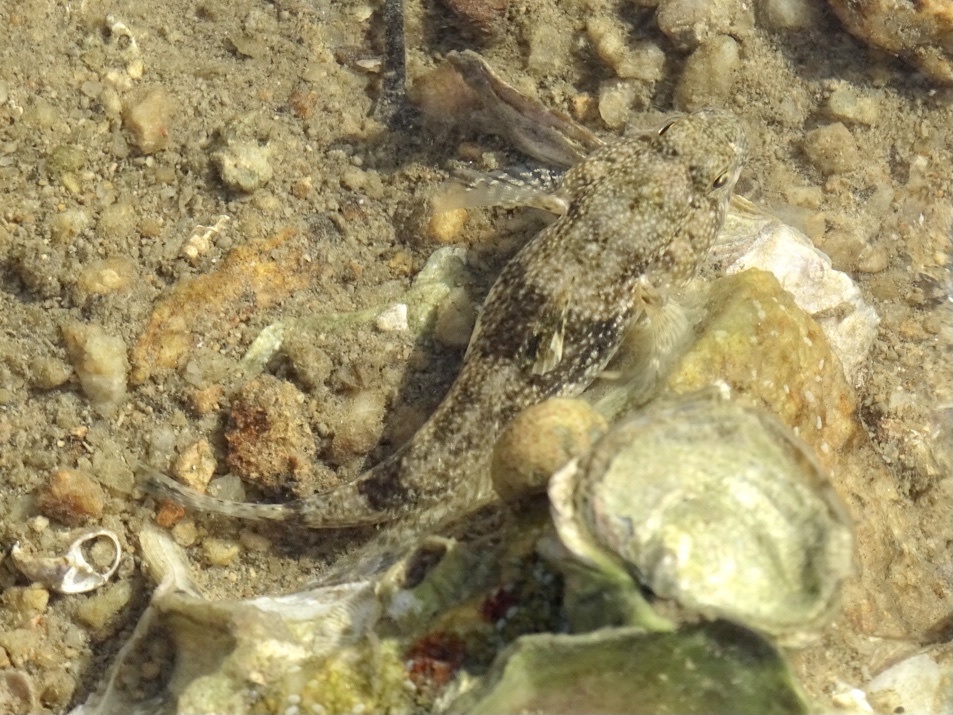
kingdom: Animalia
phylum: Chordata
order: Perciformes
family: Gobiidae
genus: Bathygobius
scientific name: Bathygobius fuscus
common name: Dusky frillgoby
